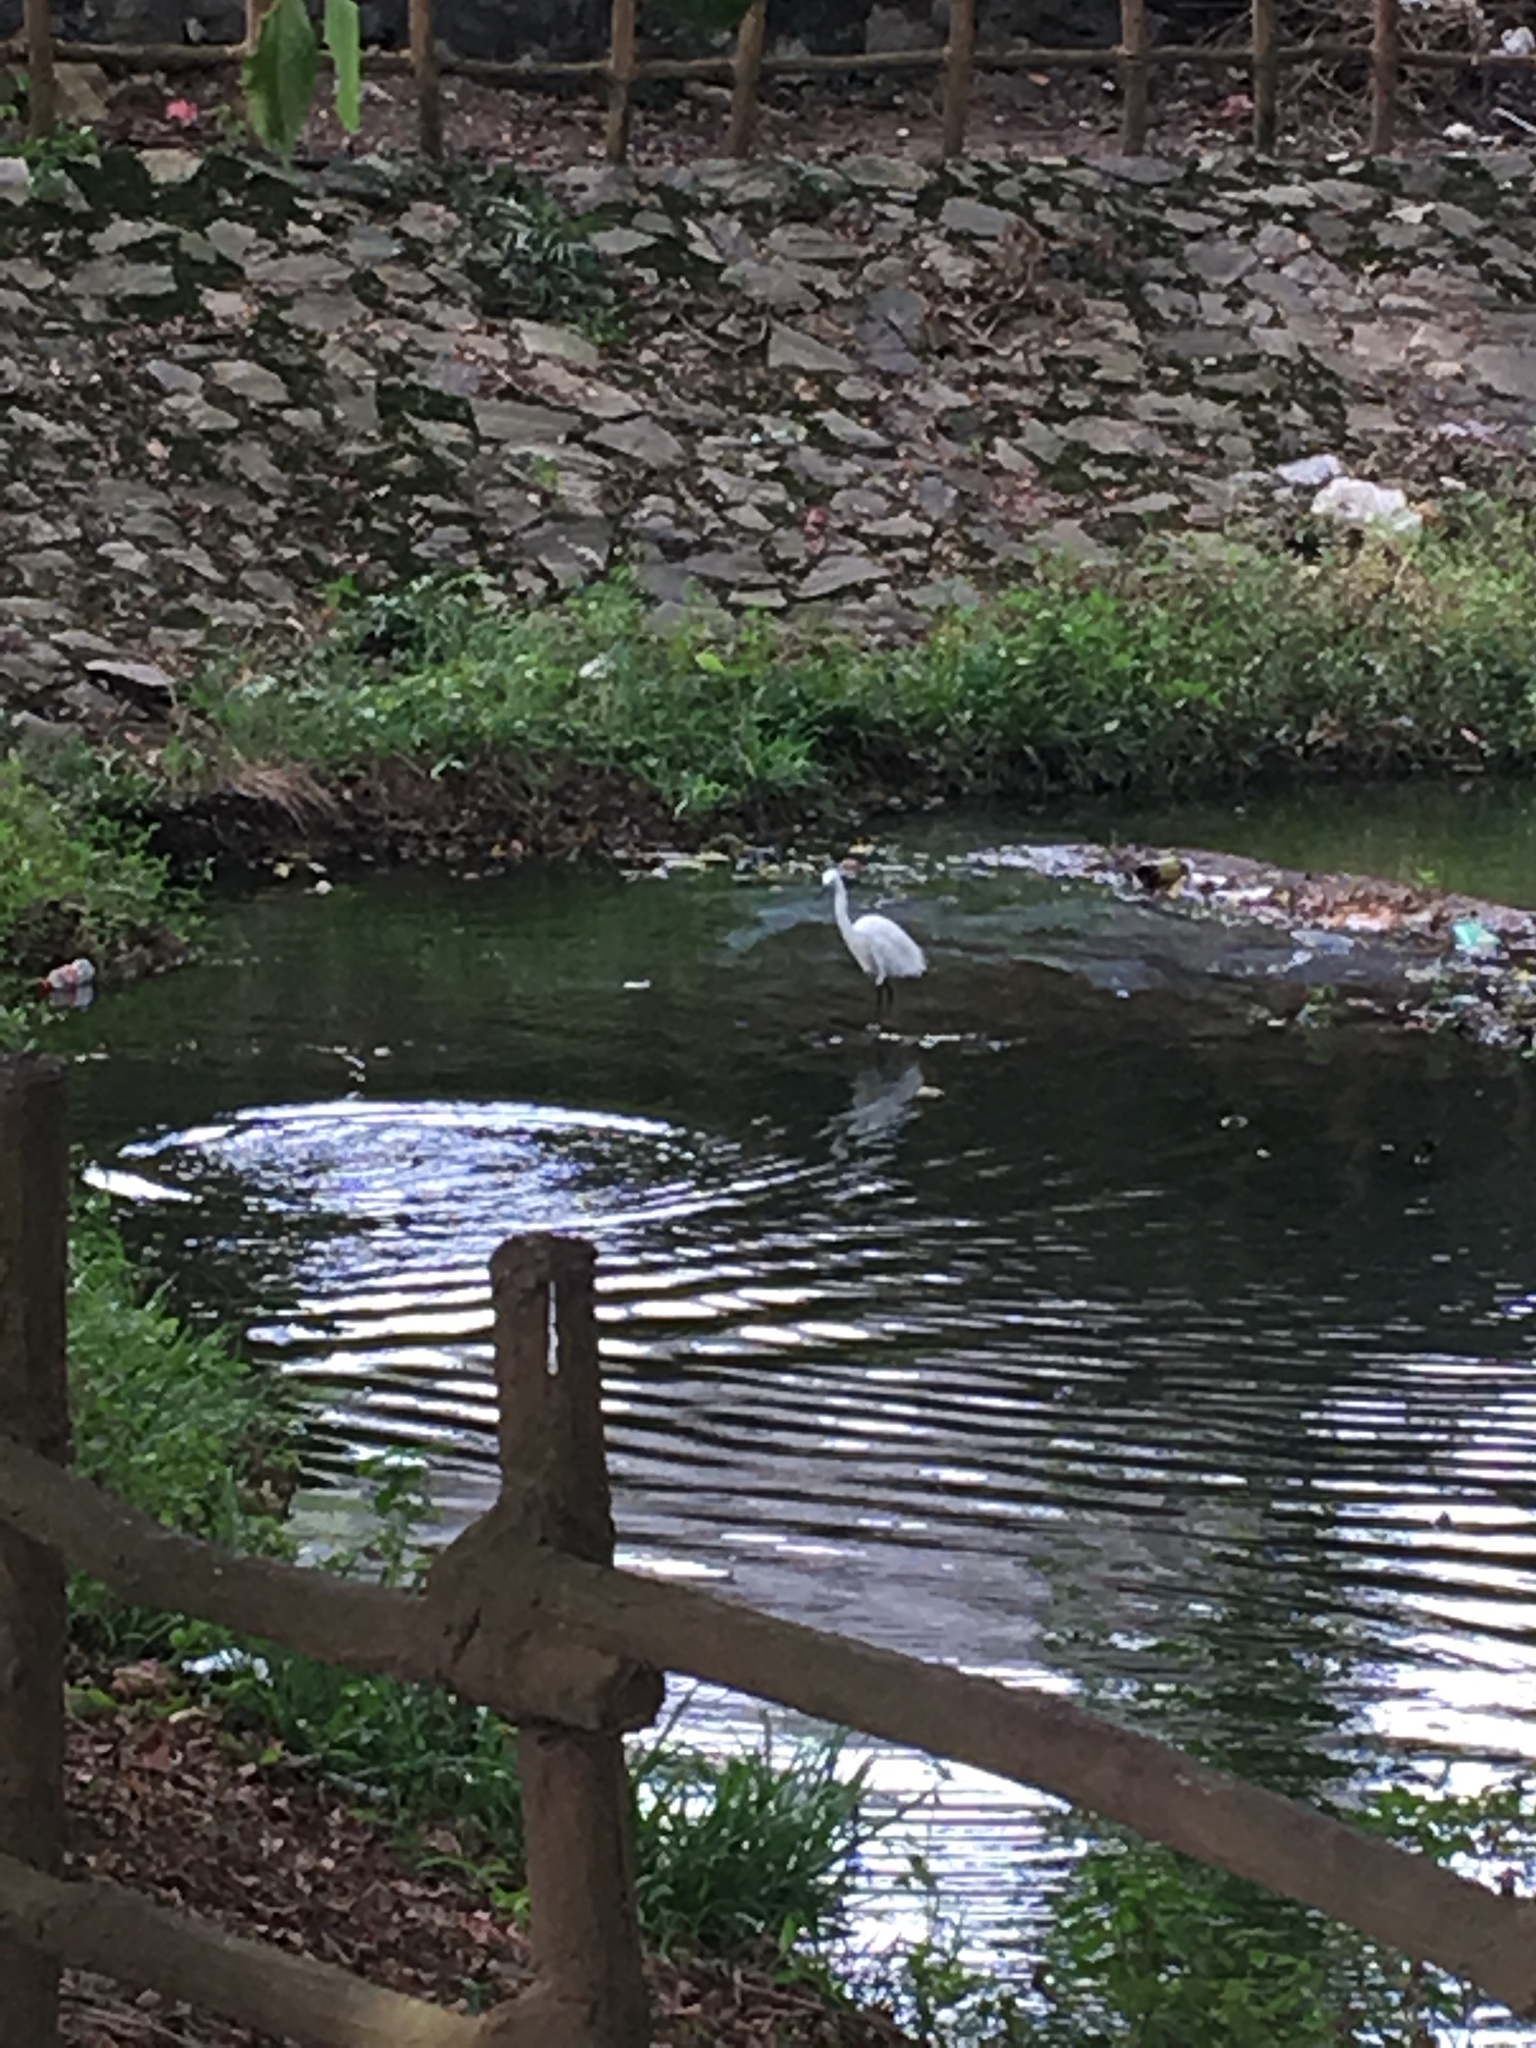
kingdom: Animalia
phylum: Chordata
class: Aves
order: Pelecaniformes
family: Ardeidae
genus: Egretta
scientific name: Egretta garzetta
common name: Little egret
